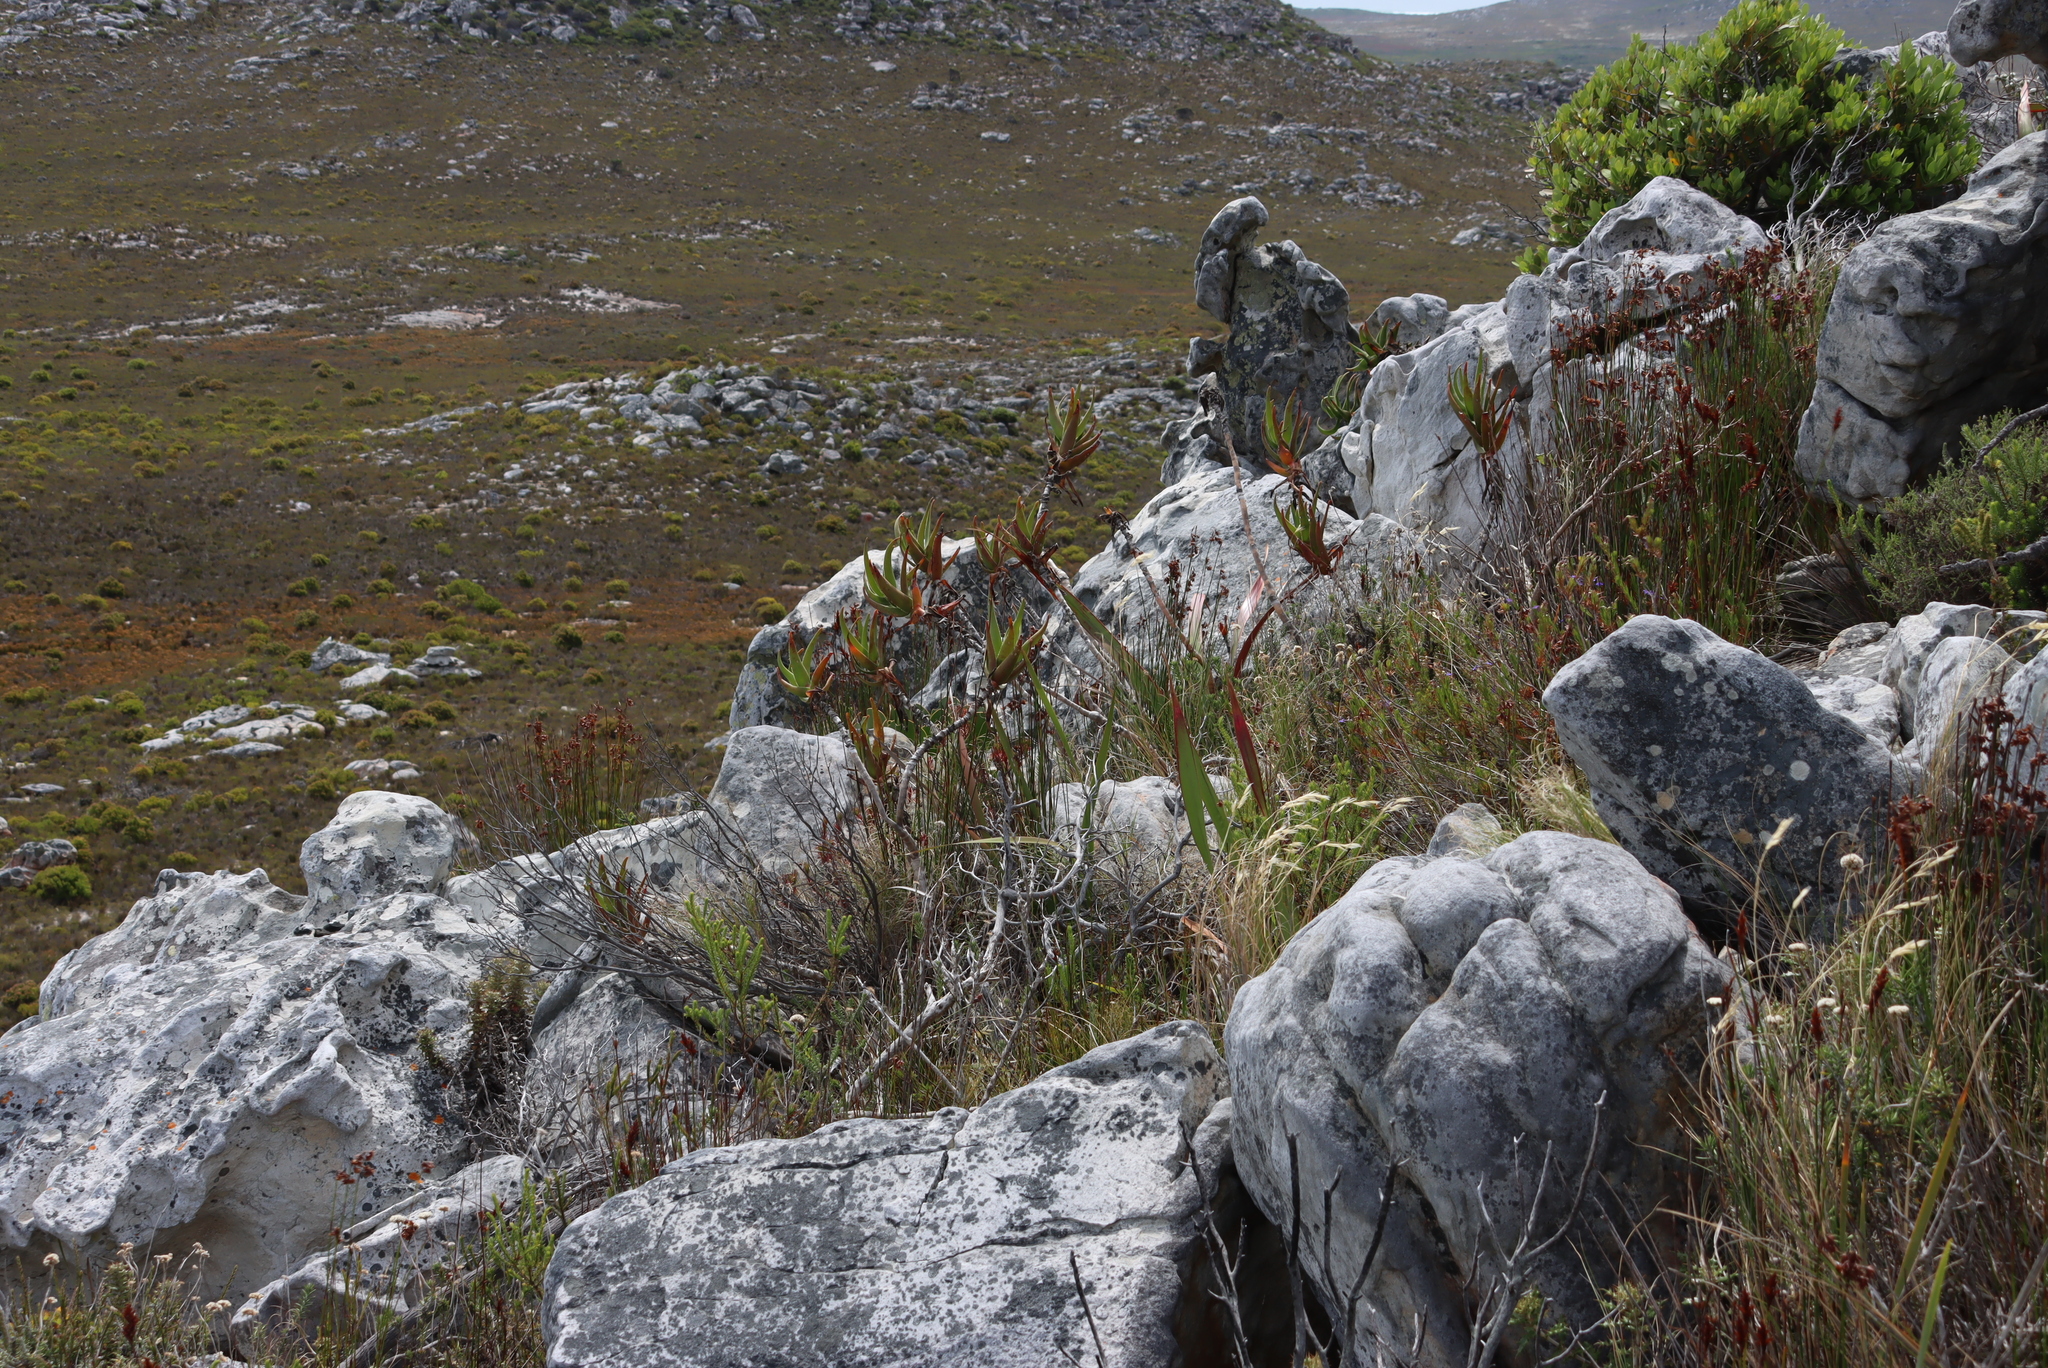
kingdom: Plantae
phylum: Tracheophyta
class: Liliopsida
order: Asparagales
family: Asphodelaceae
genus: Aloiampelos
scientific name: Aloiampelos commixta
